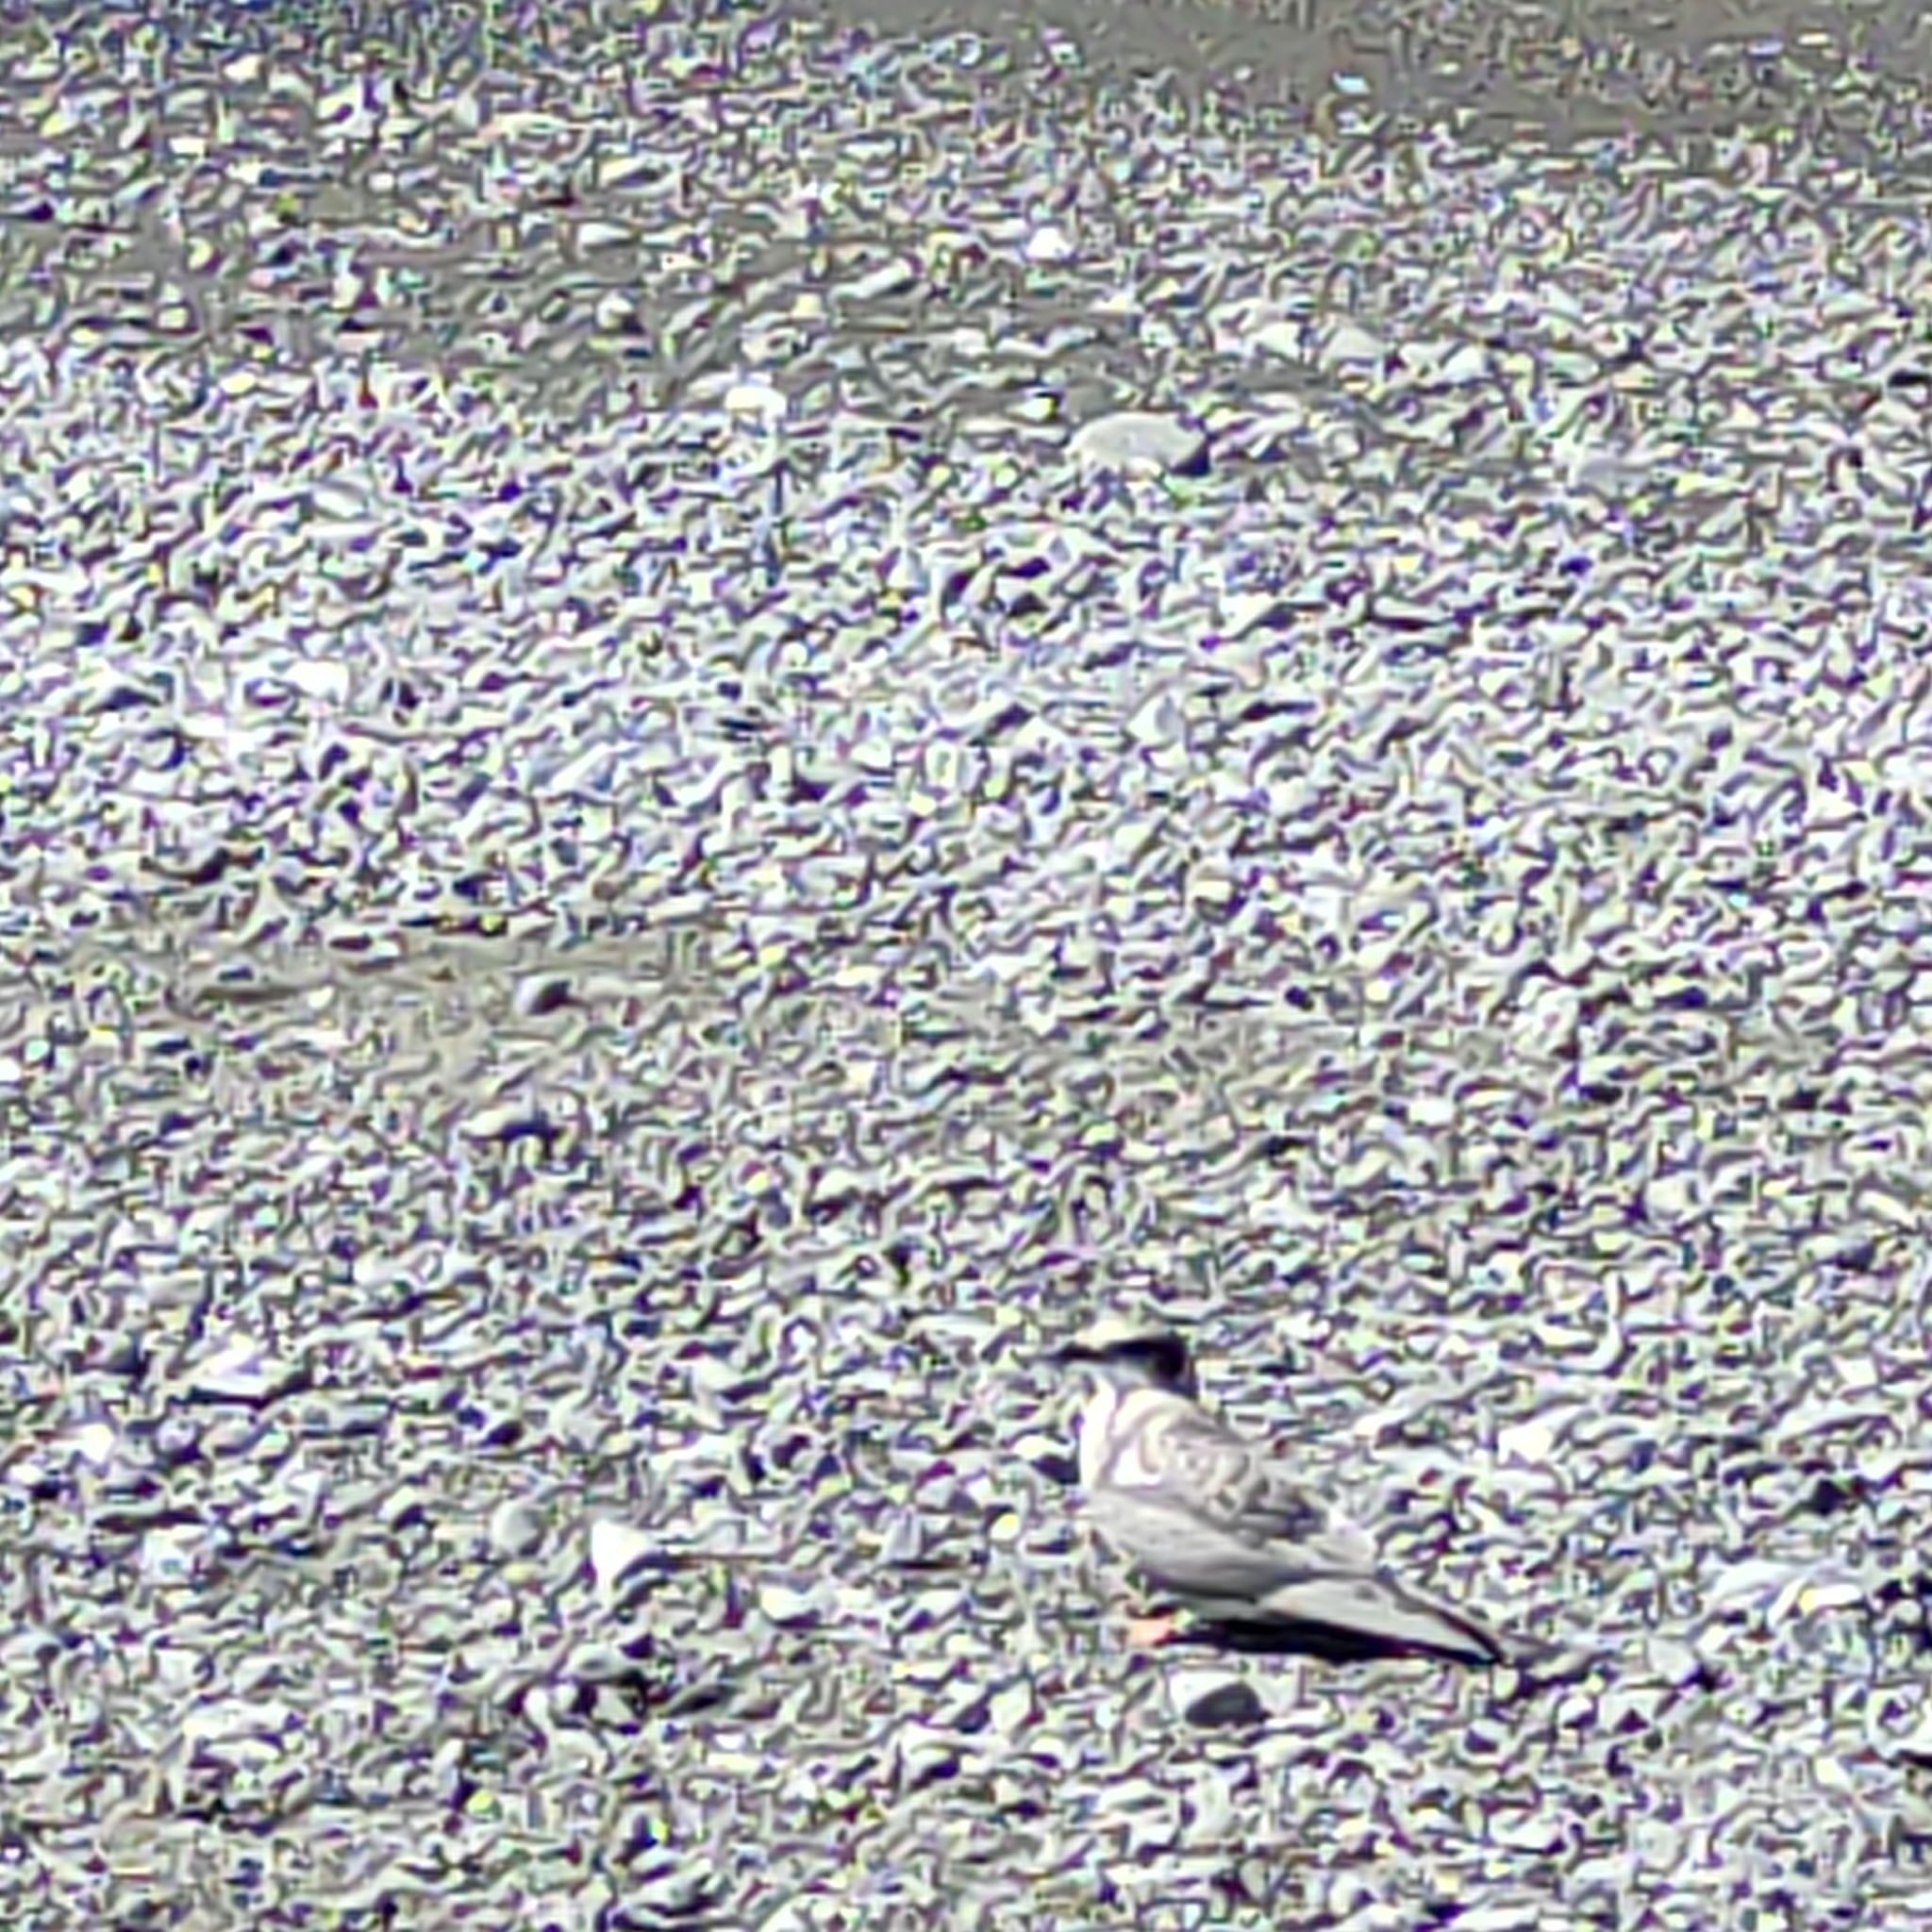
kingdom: Animalia
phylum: Chordata
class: Aves
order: Charadriiformes
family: Charadriidae
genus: Anarhynchus
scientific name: Anarhynchus
